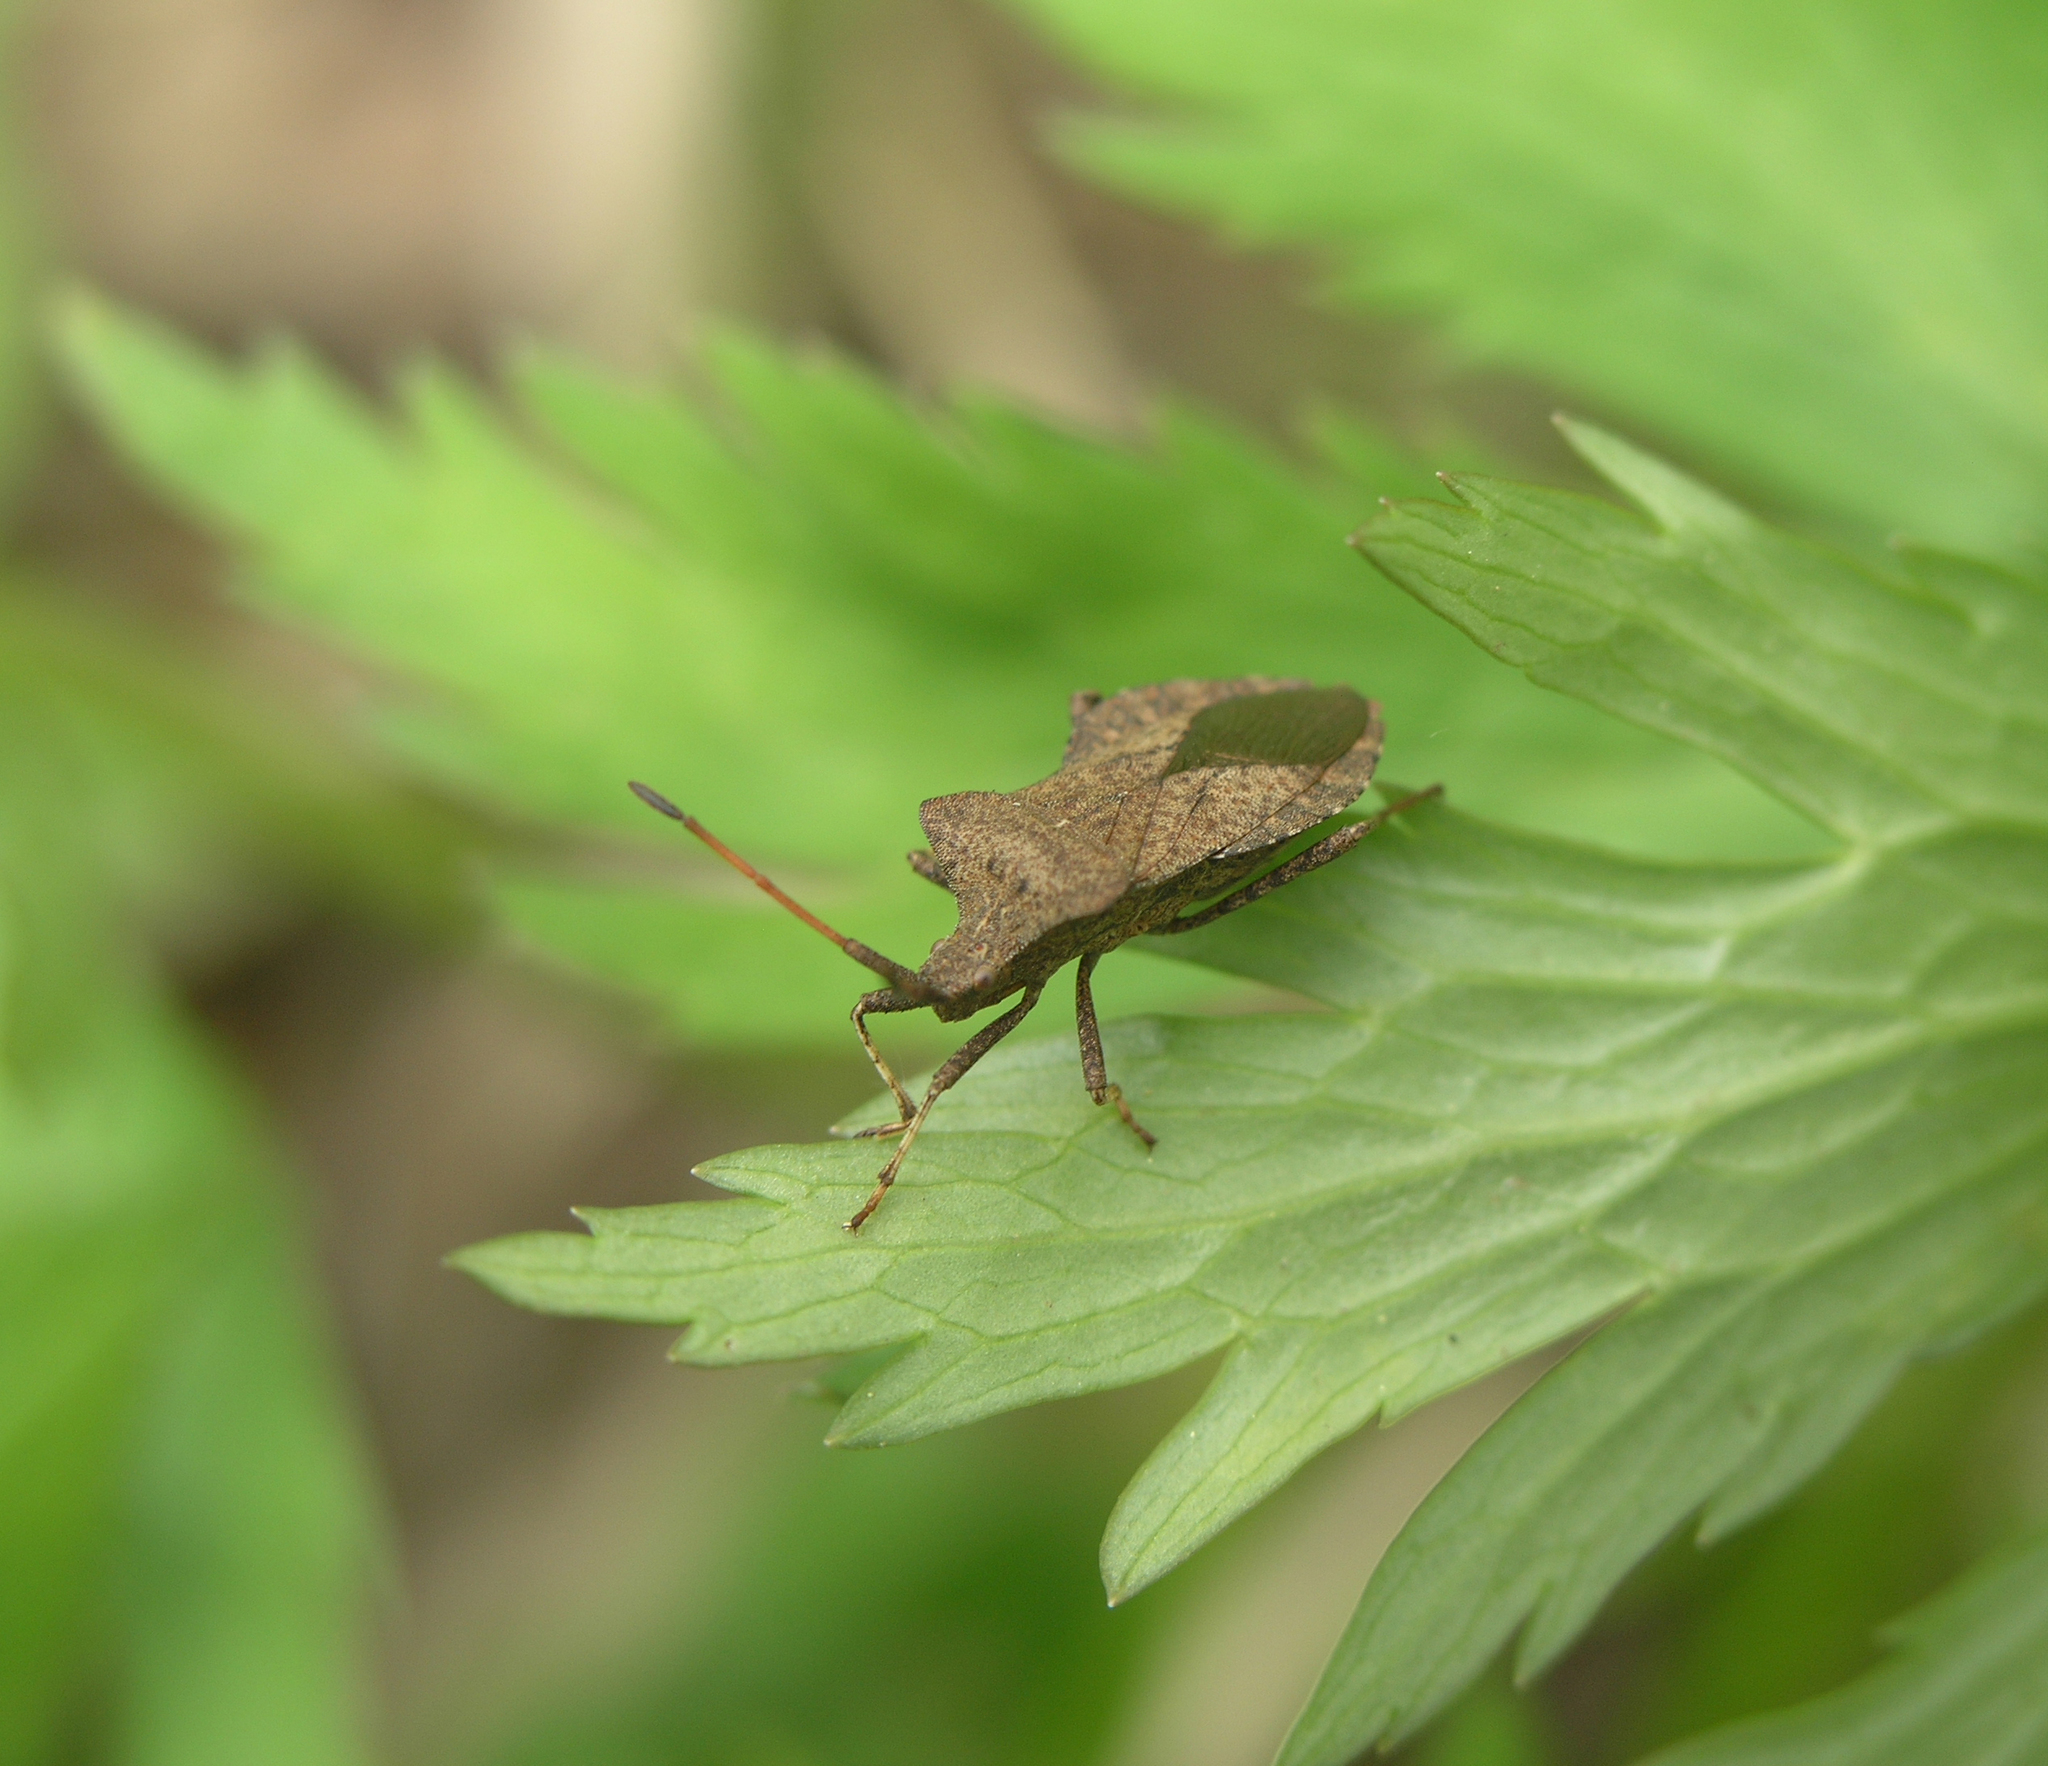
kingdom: Animalia
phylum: Arthropoda
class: Insecta
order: Hemiptera
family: Coreidae
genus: Coreus
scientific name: Coreus marginatus
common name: Dock bug
